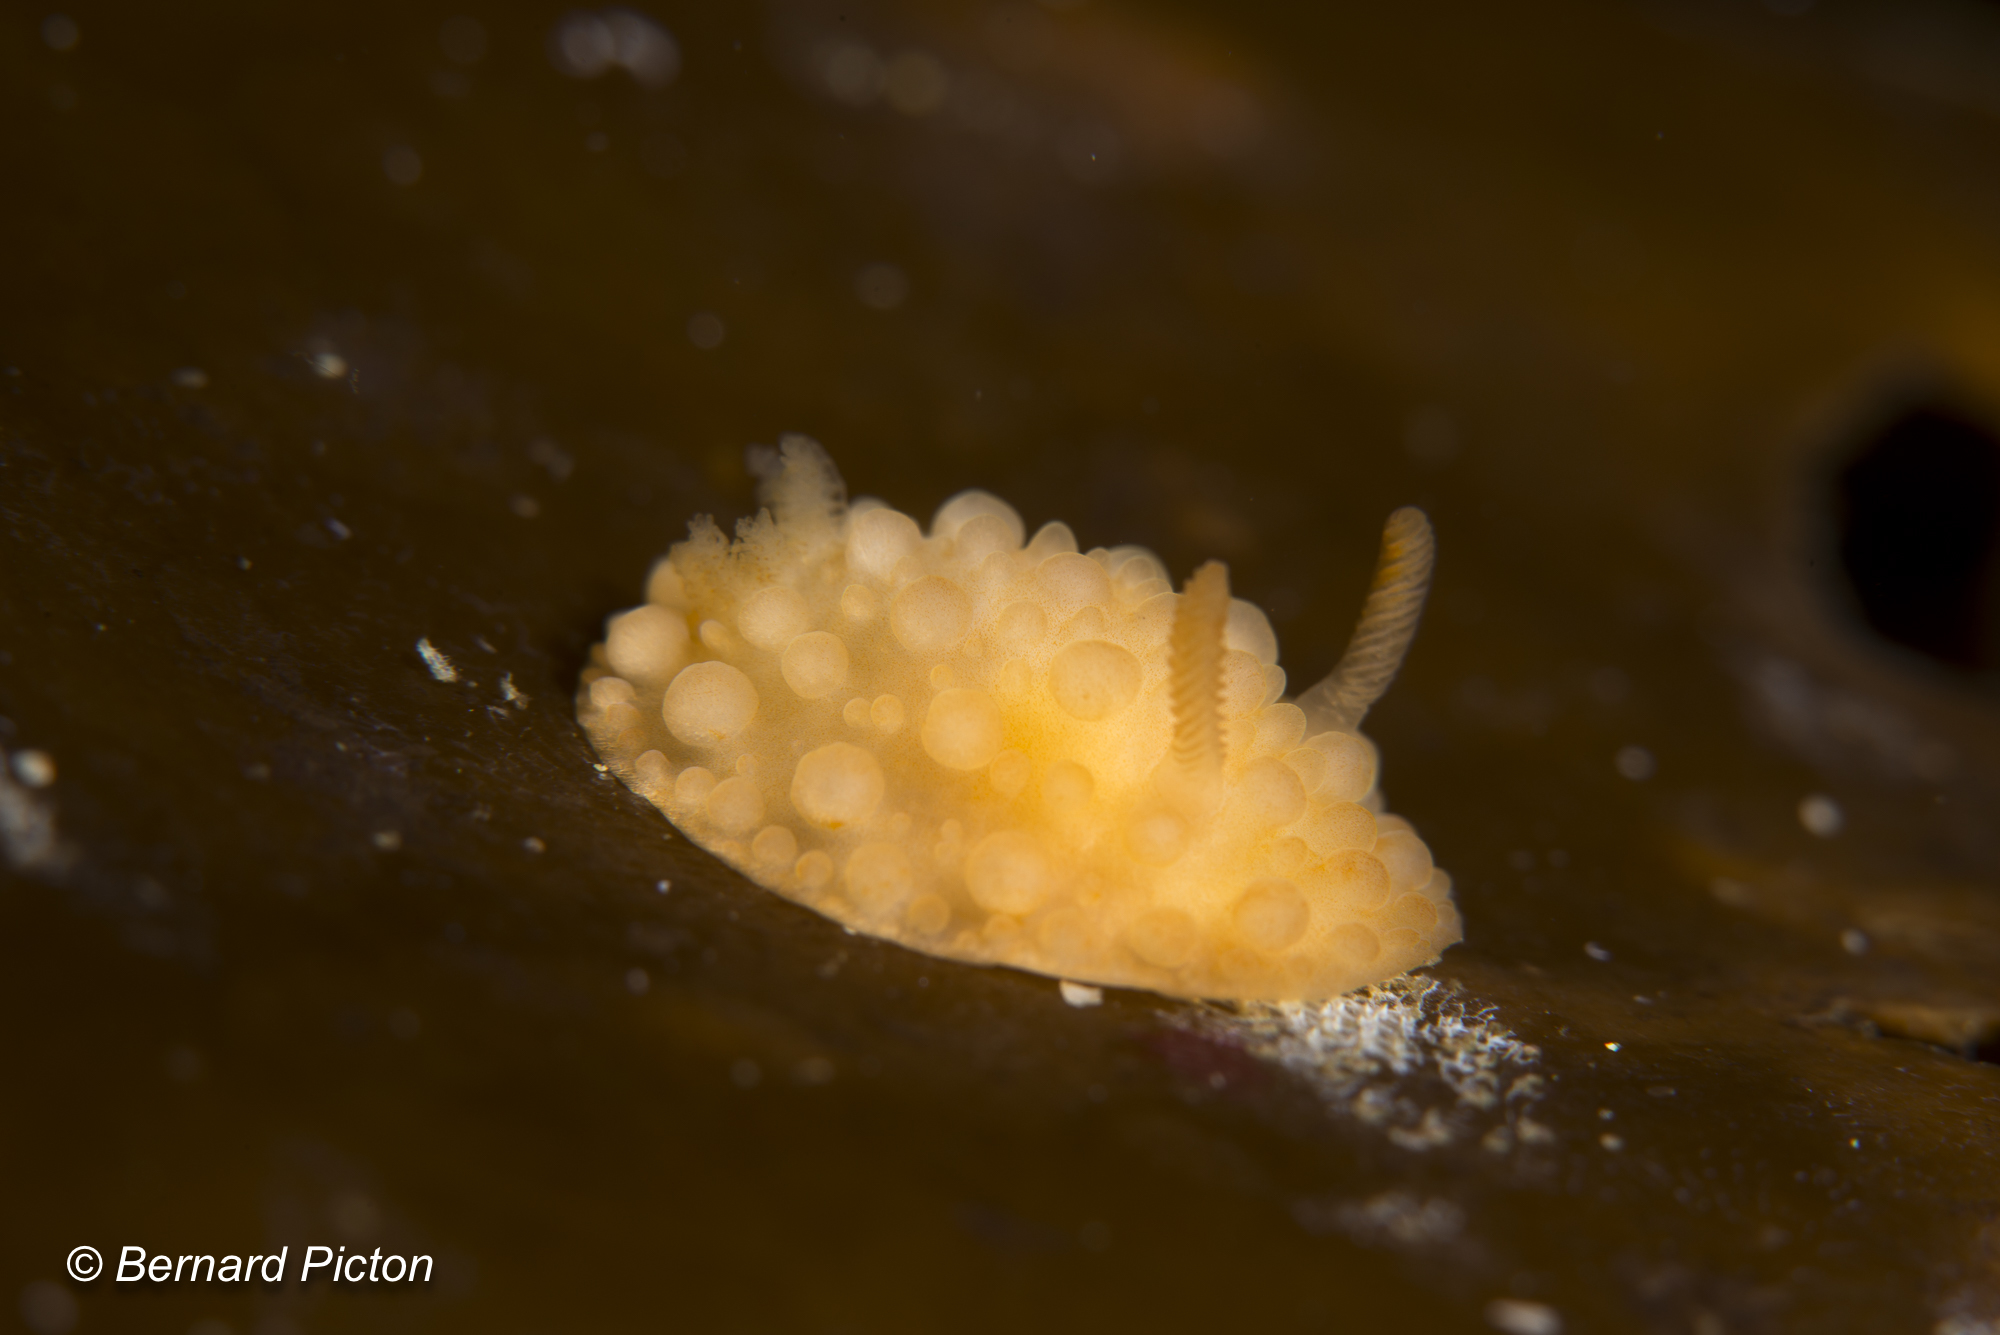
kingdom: Animalia
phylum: Mollusca
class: Gastropoda
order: Nudibranchia
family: Onchidorididae
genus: Adalaria
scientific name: Adalaria loveni
